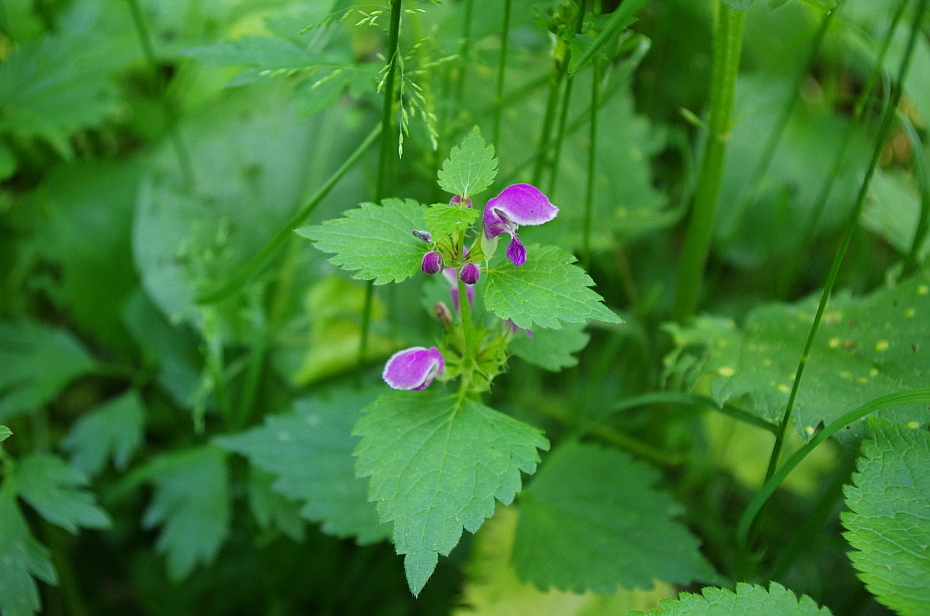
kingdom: Plantae
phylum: Tracheophyta
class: Magnoliopsida
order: Lamiales
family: Lamiaceae
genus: Lamium
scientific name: Lamium maculatum
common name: Spotted dead-nettle
